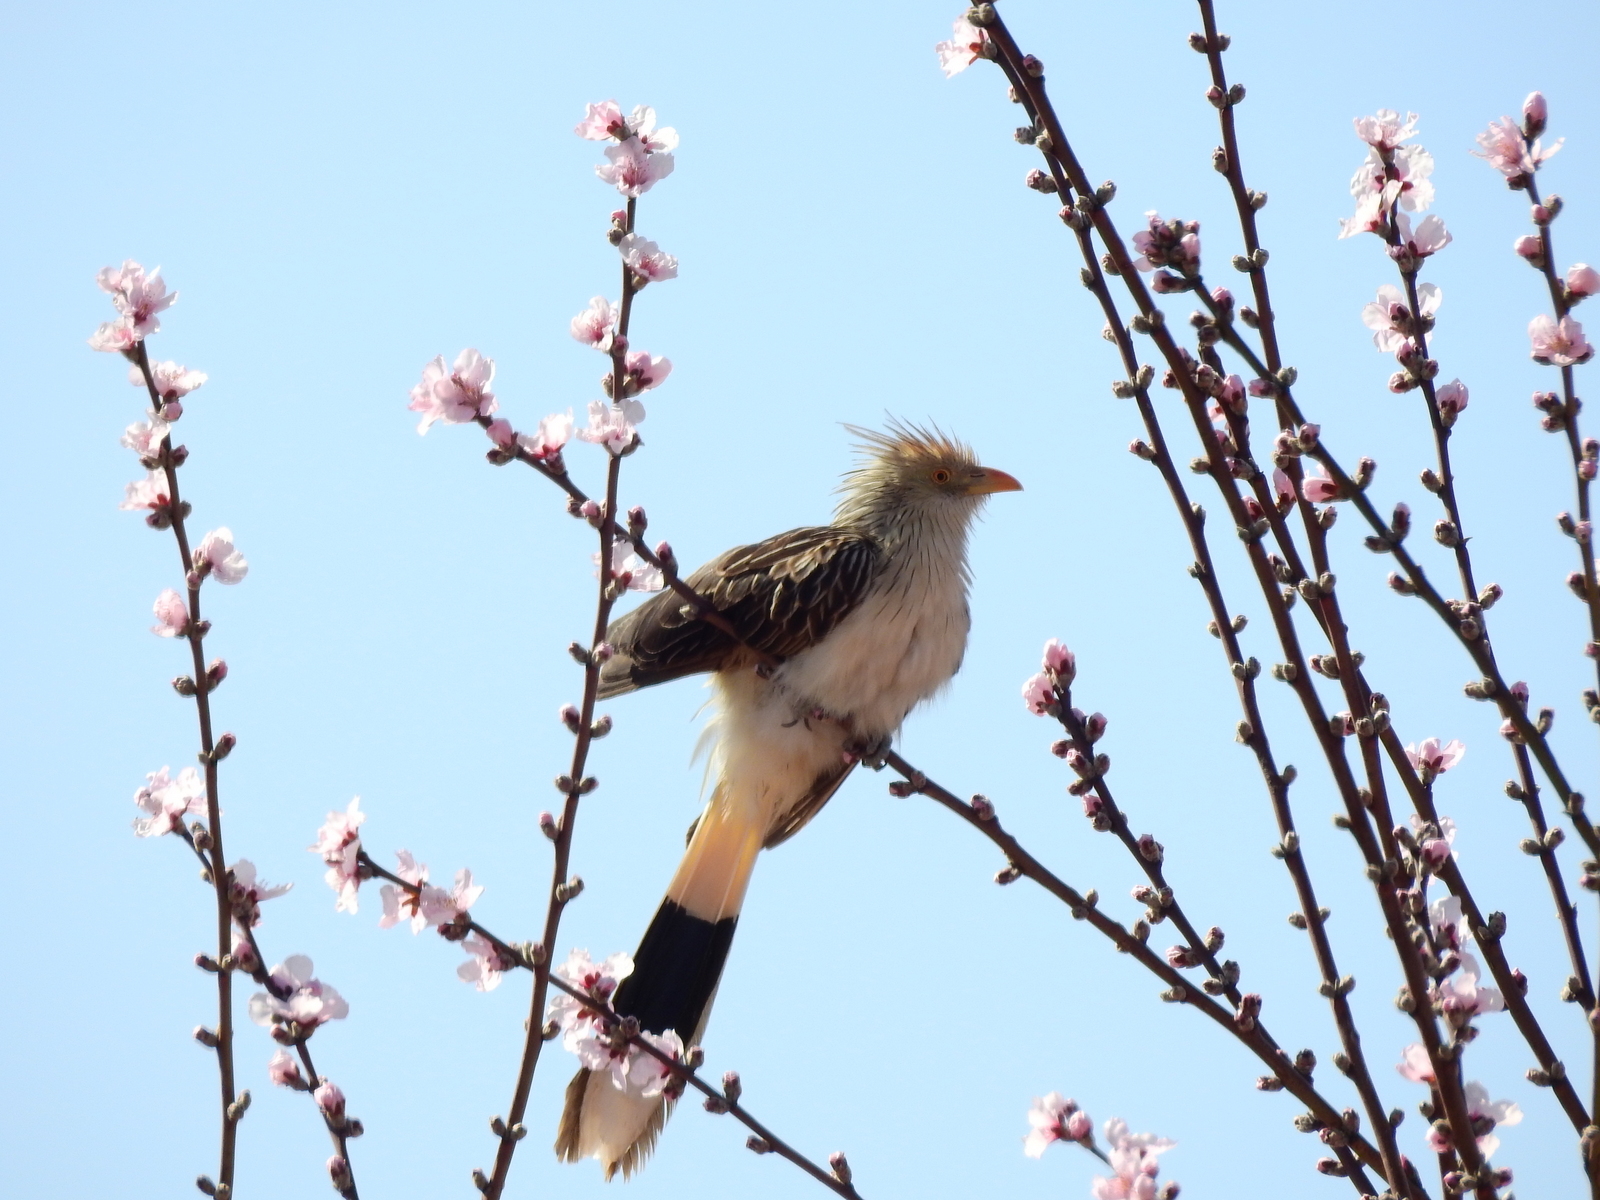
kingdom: Animalia
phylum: Chordata
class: Aves
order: Cuculiformes
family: Cuculidae
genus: Guira
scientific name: Guira guira
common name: Guira cuckoo
